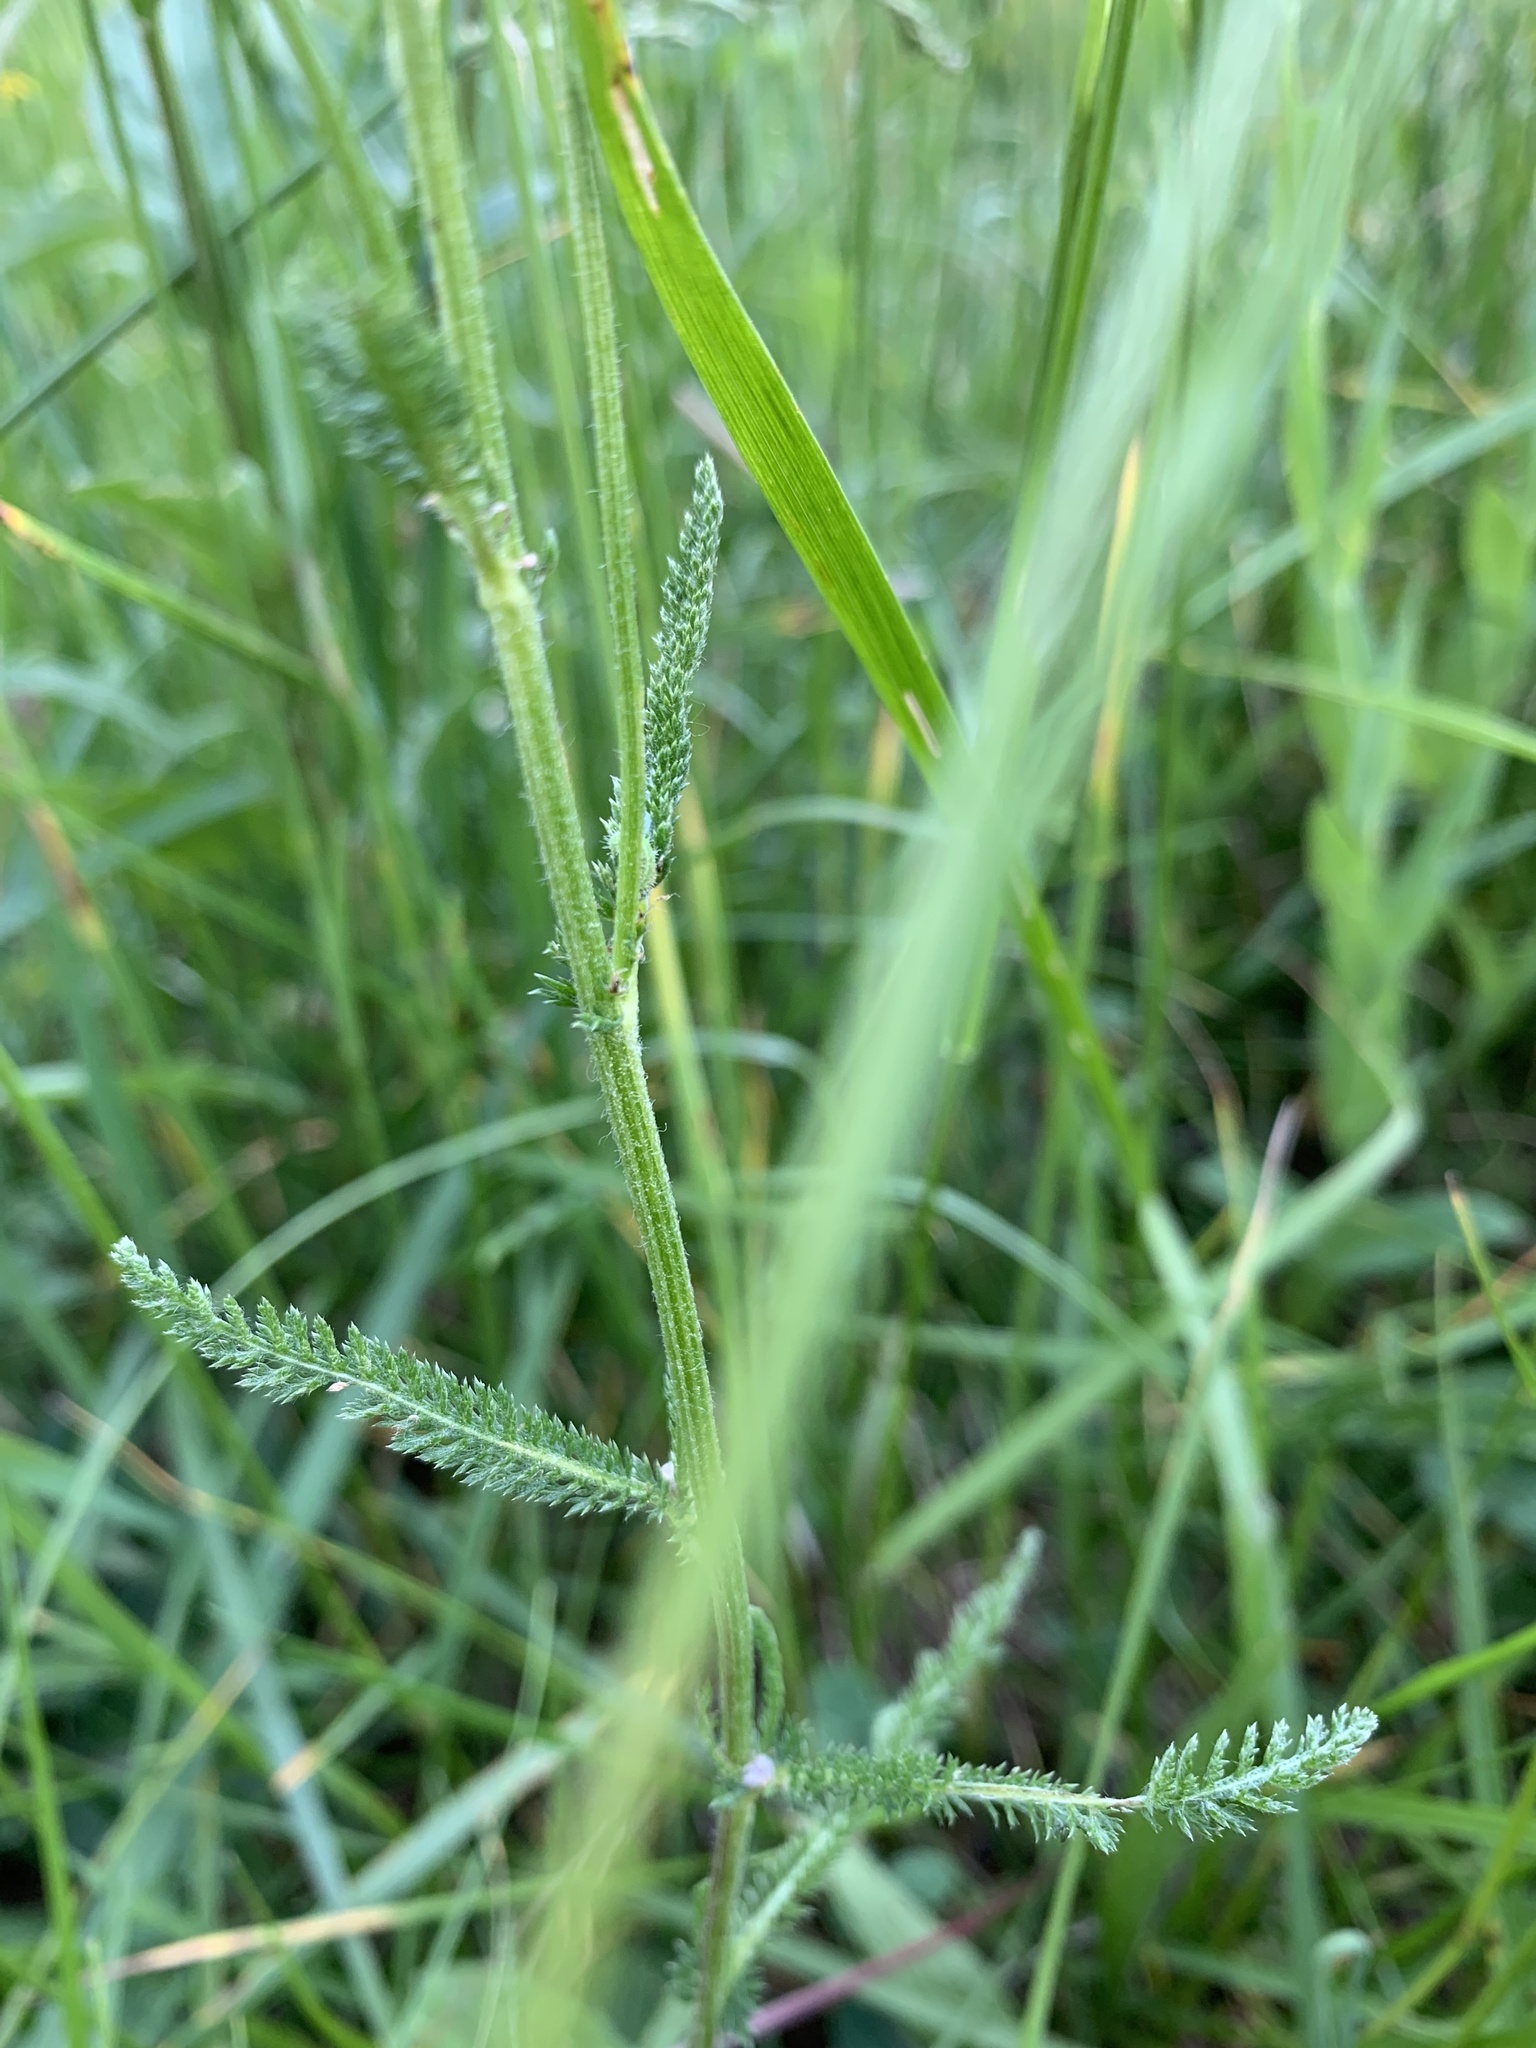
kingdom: Plantae
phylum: Tracheophyta
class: Magnoliopsida
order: Asterales
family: Asteraceae
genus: Achillea
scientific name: Achillea millefolium
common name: Yarrow
